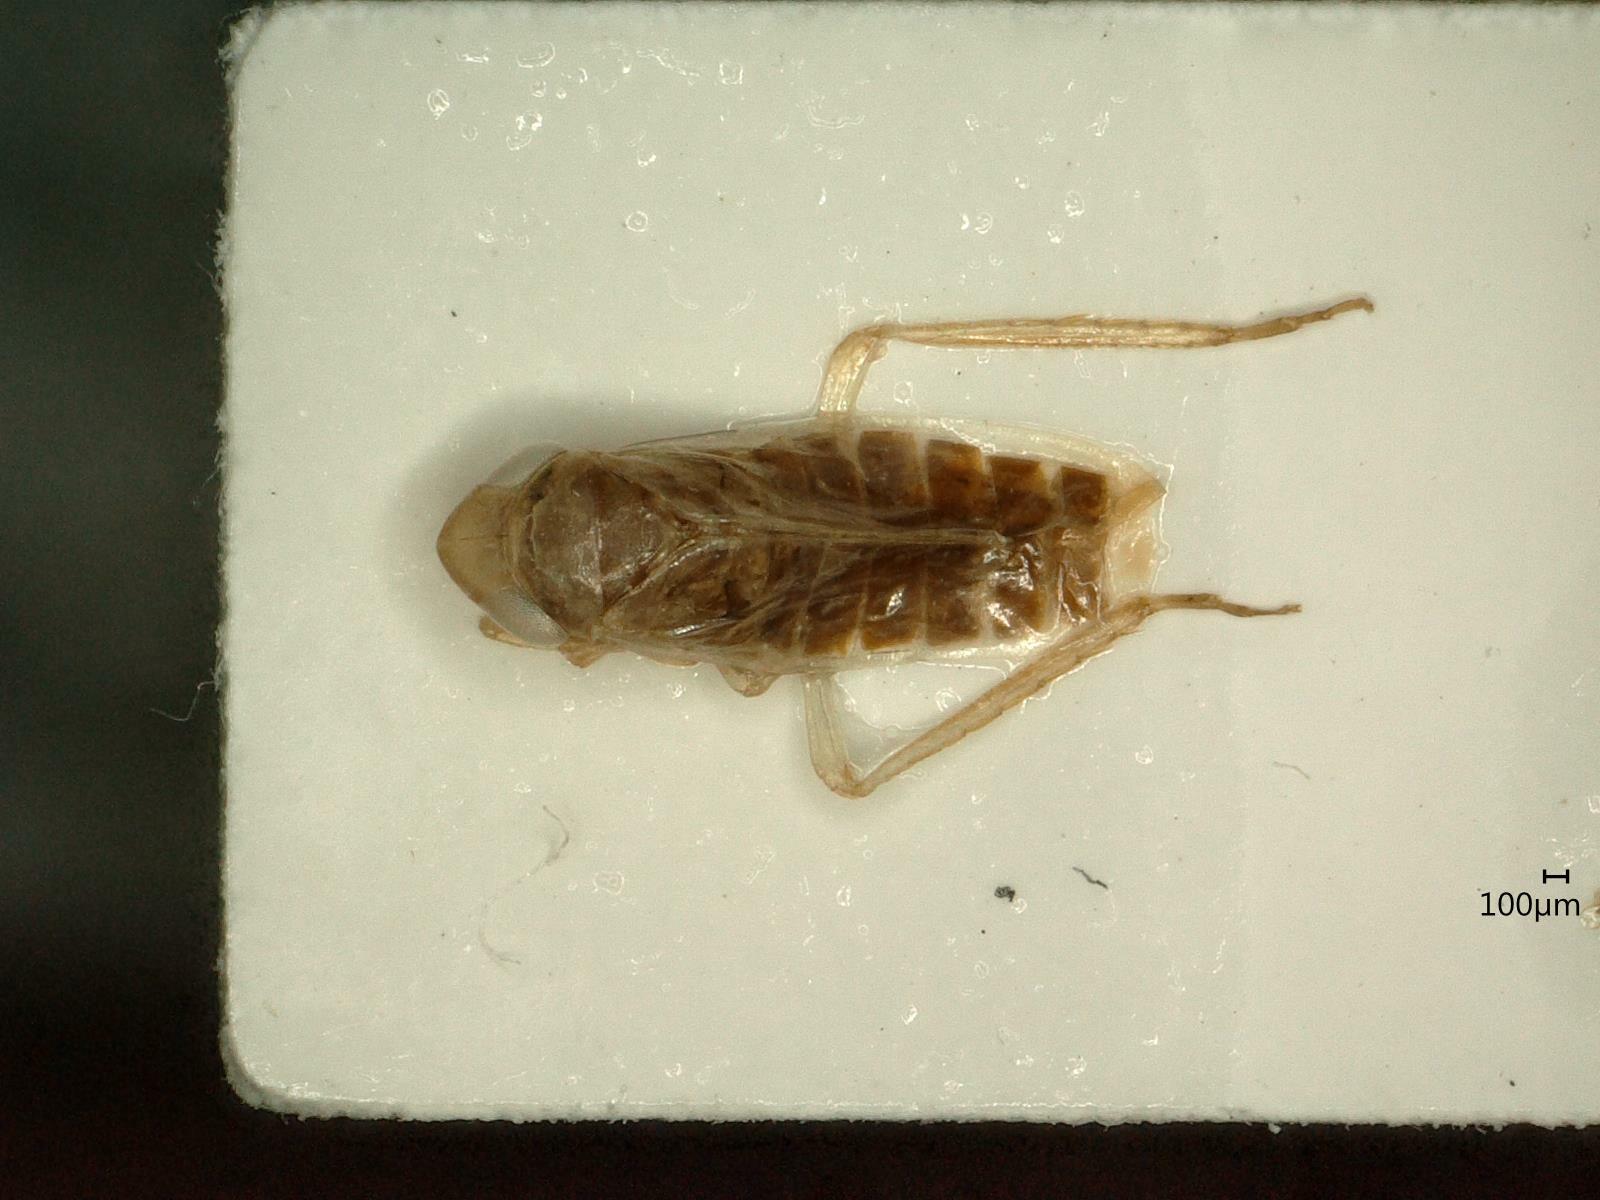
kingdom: Animalia
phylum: Arthropoda
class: Insecta
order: Hemiptera
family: Cicadellidae
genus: Psammotettix
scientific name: Psammotettix confinis
